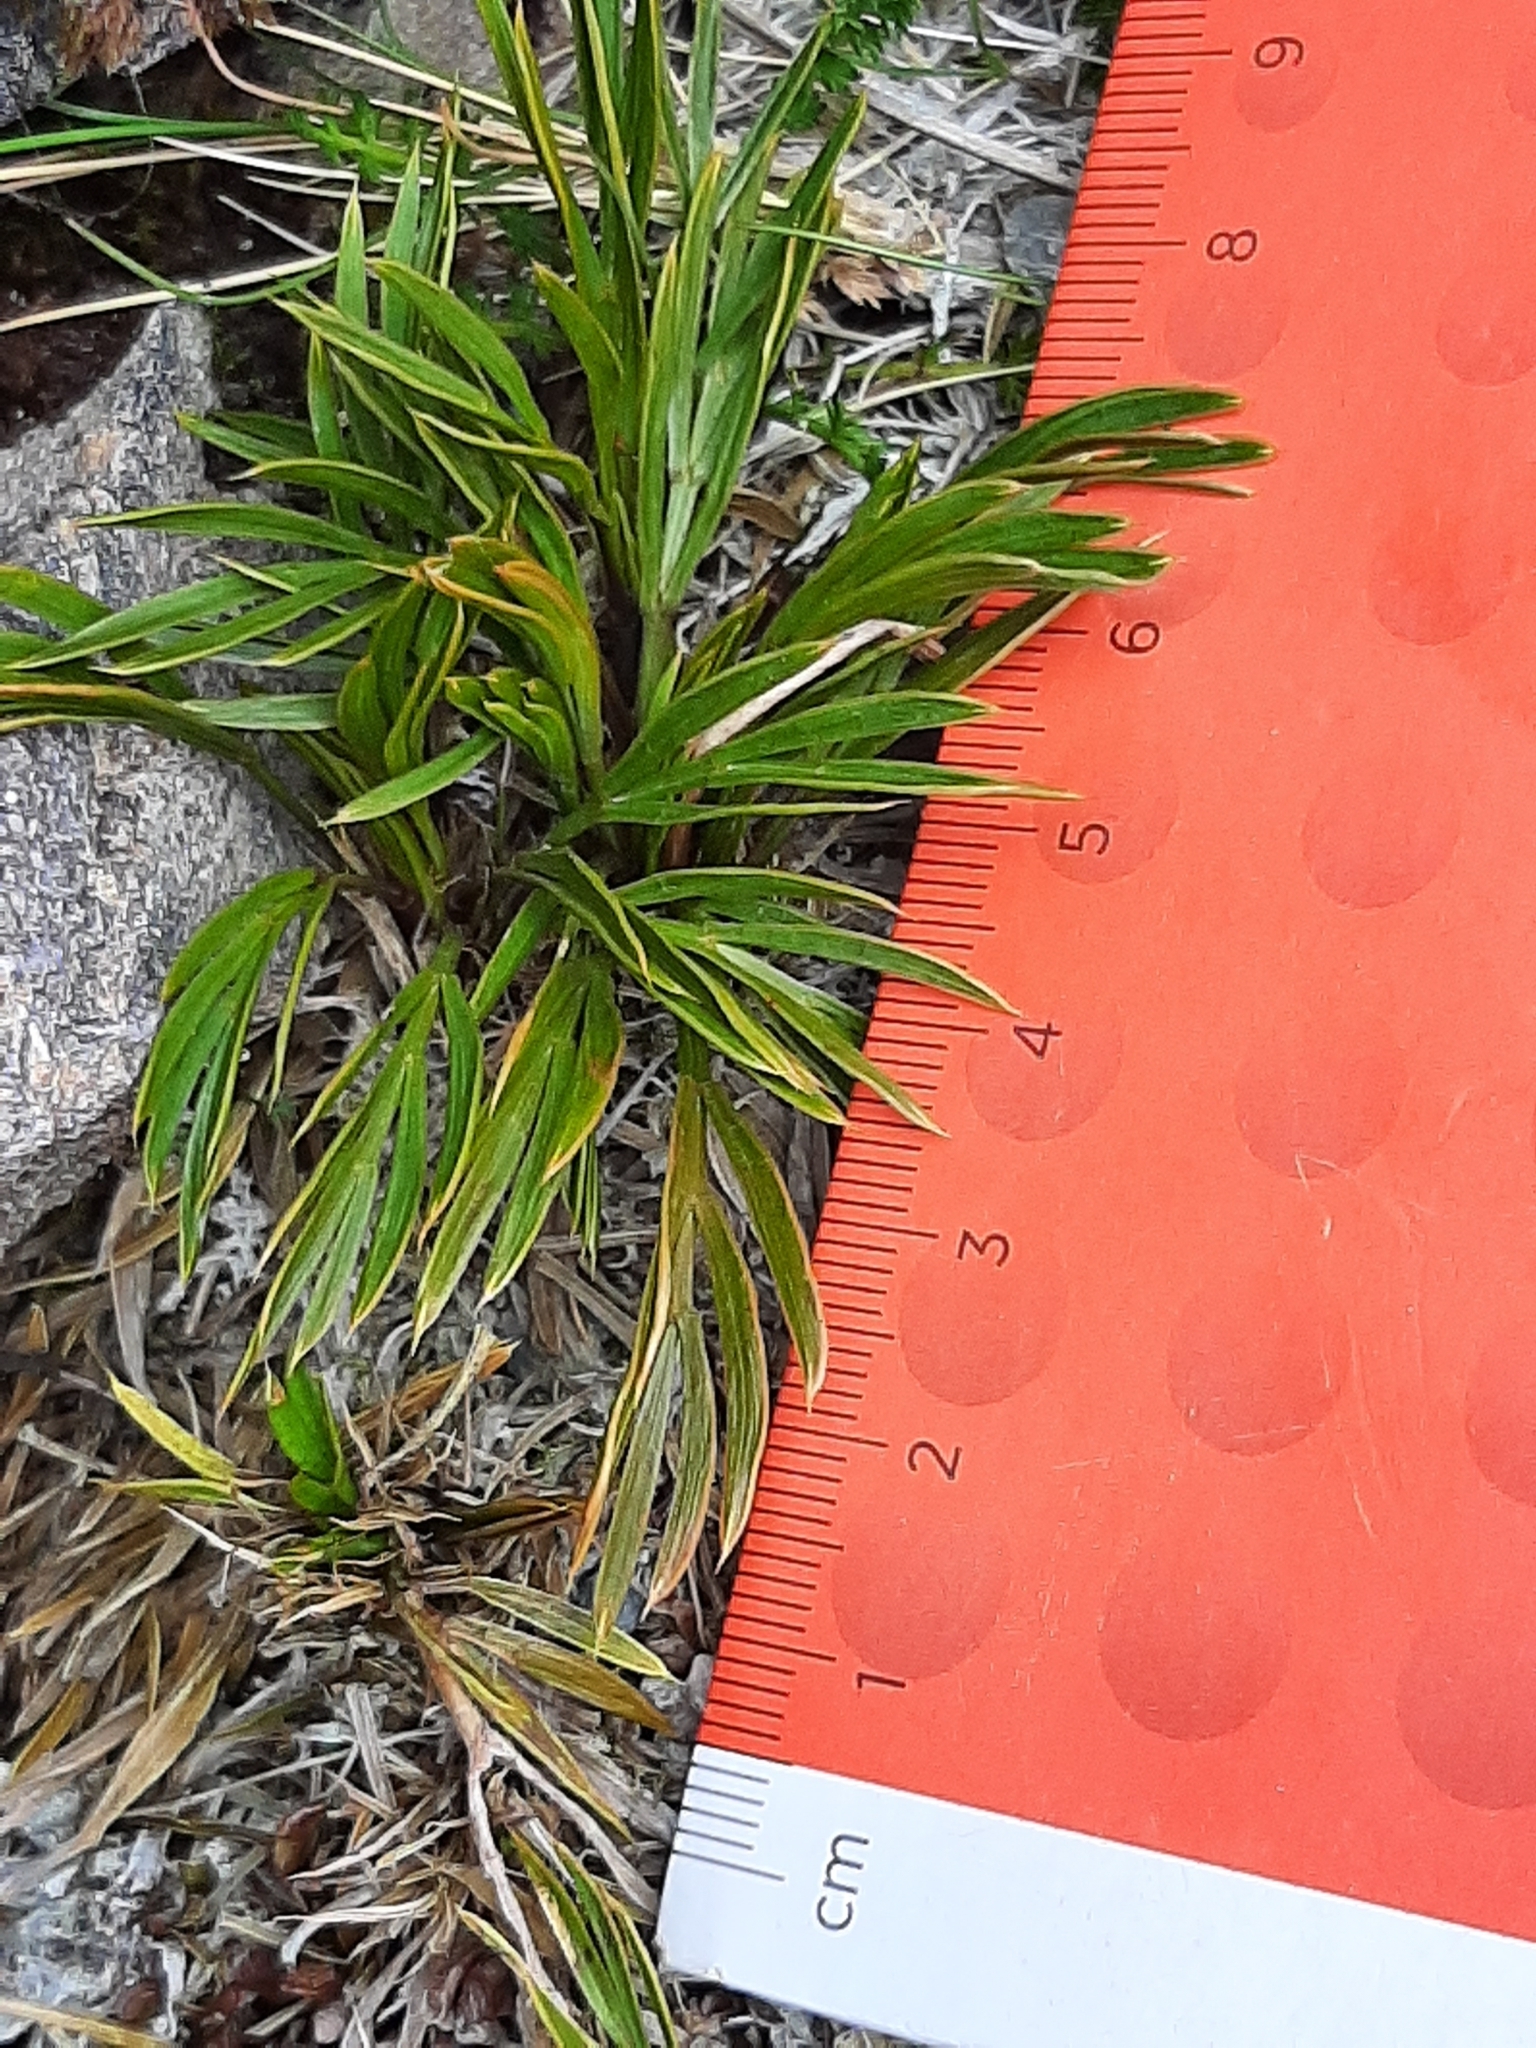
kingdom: Plantae
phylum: Tracheophyta
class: Magnoliopsida
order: Apiales
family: Apiaceae
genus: Aciphylla
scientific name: Aciphylla monroi
